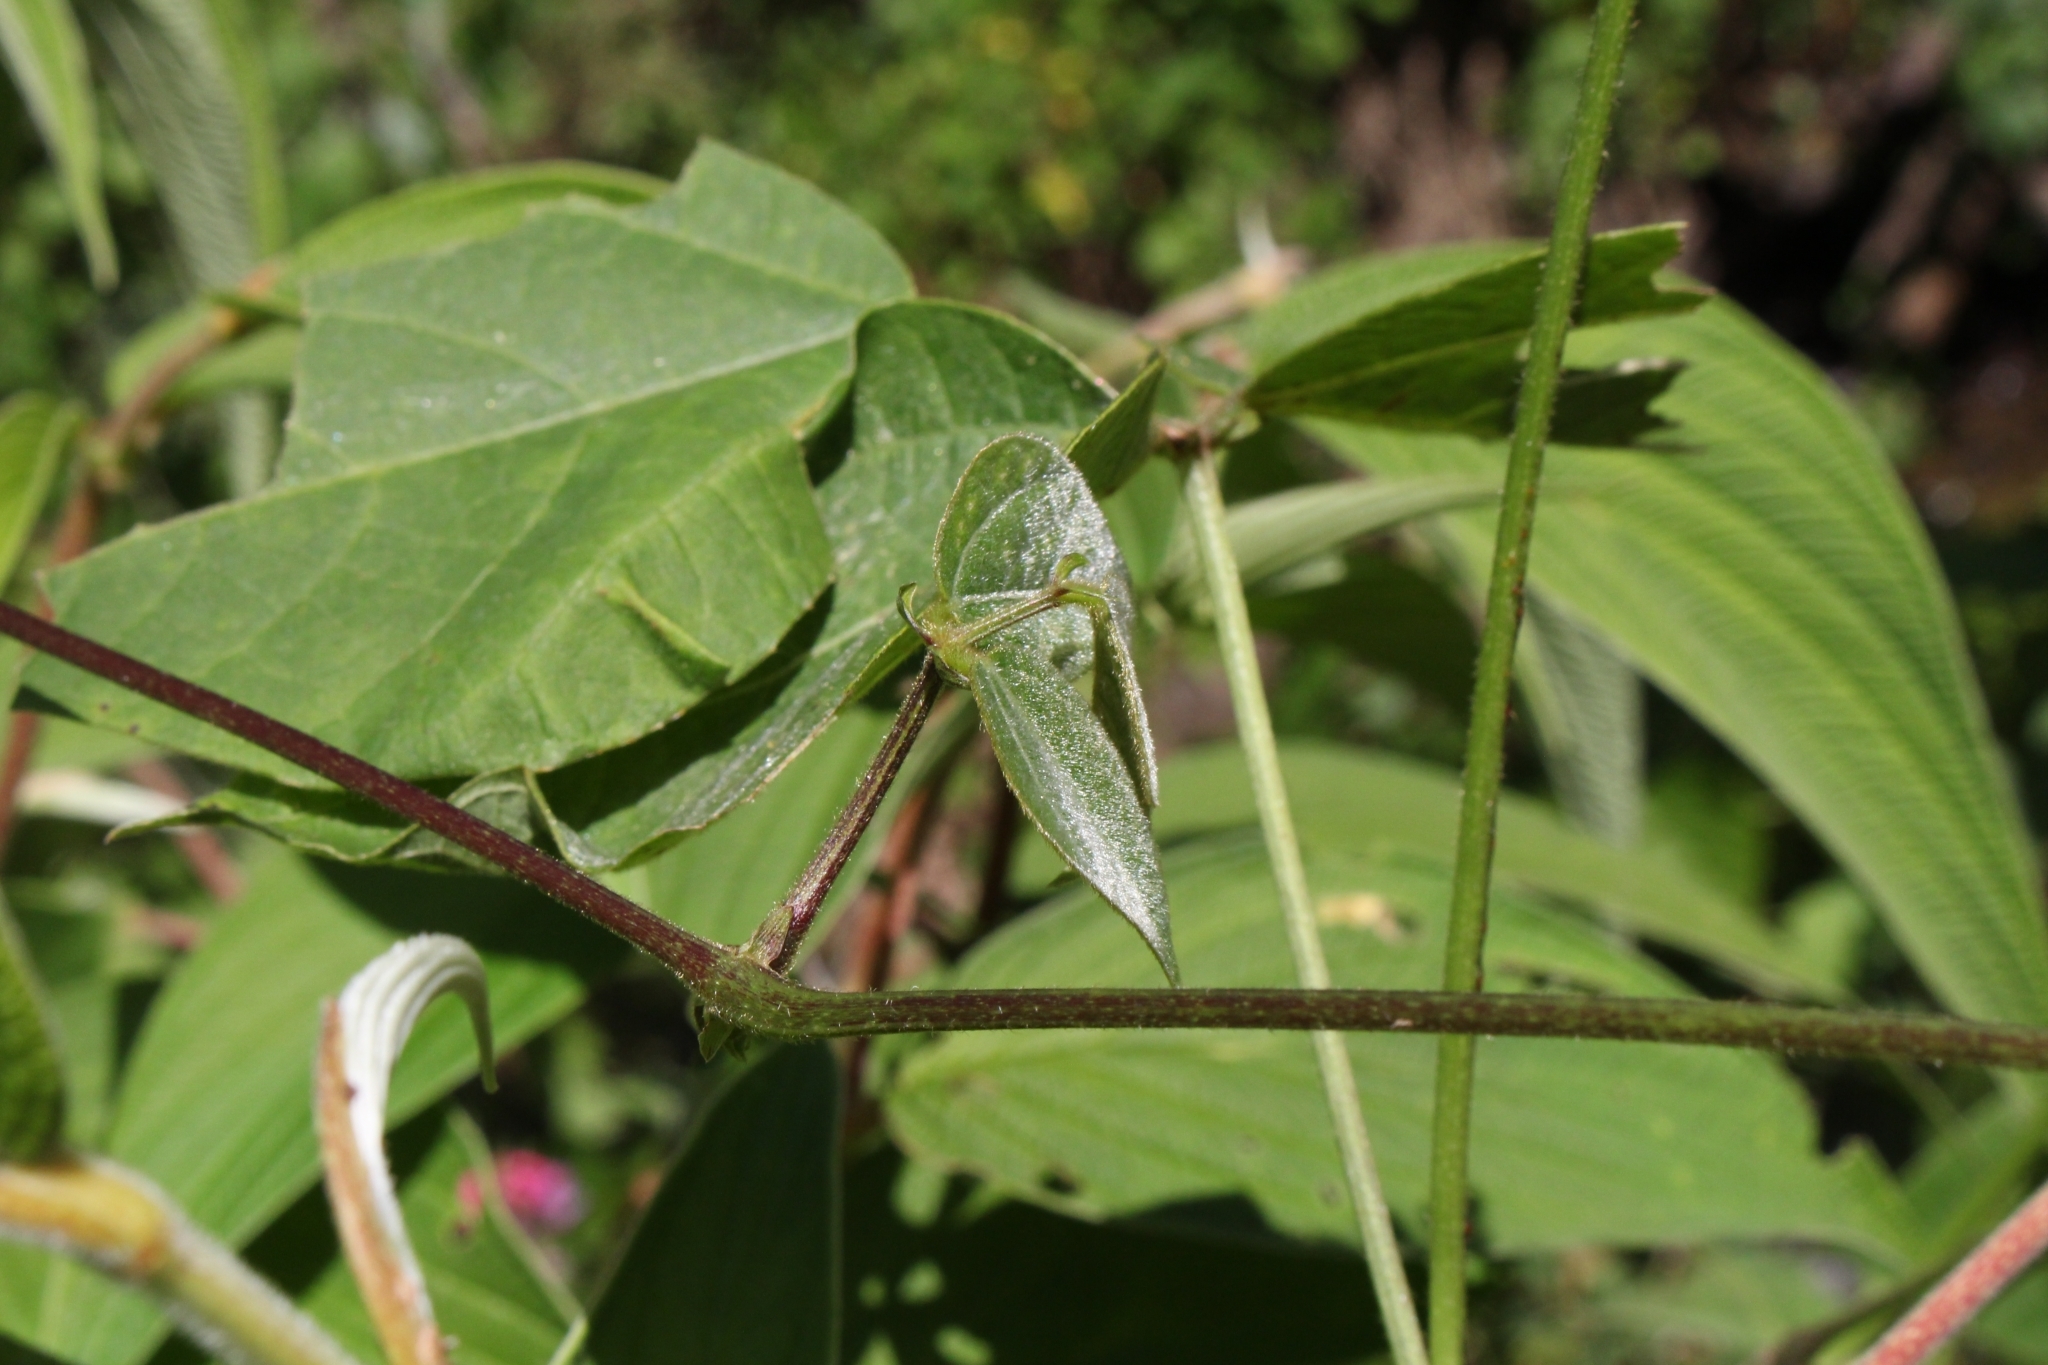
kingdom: Plantae
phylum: Tracheophyta
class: Magnoliopsida
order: Fabales
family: Fabaceae
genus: Phaseolus
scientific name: Phaseolus costaricensis
